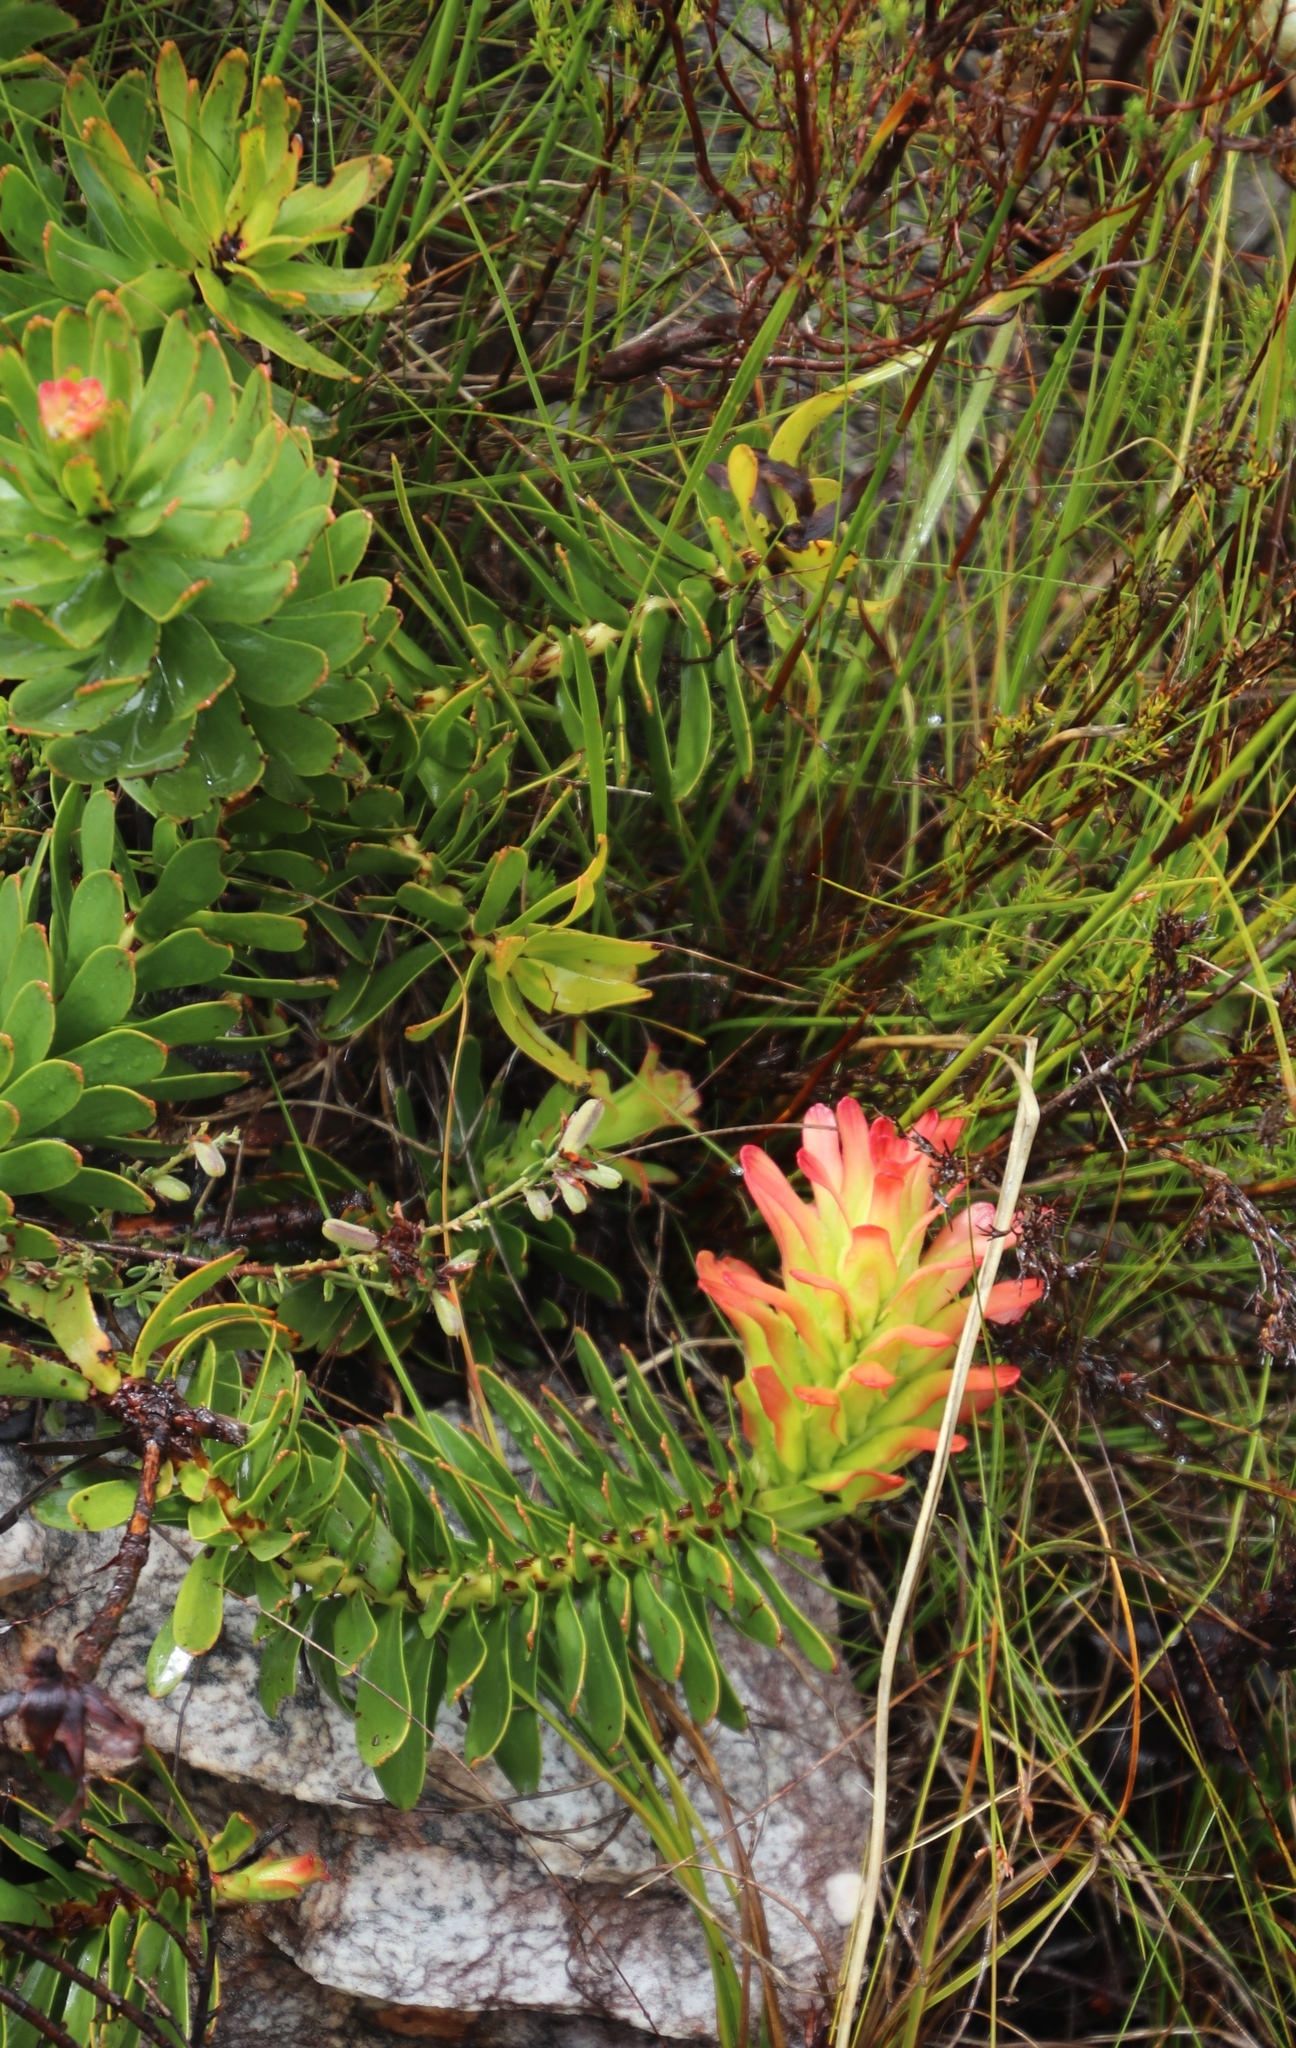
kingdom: Plantae
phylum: Tracheophyta
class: Magnoliopsida
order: Proteales
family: Proteaceae
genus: Mimetes
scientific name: Mimetes cucullatus
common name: Common pagoda
